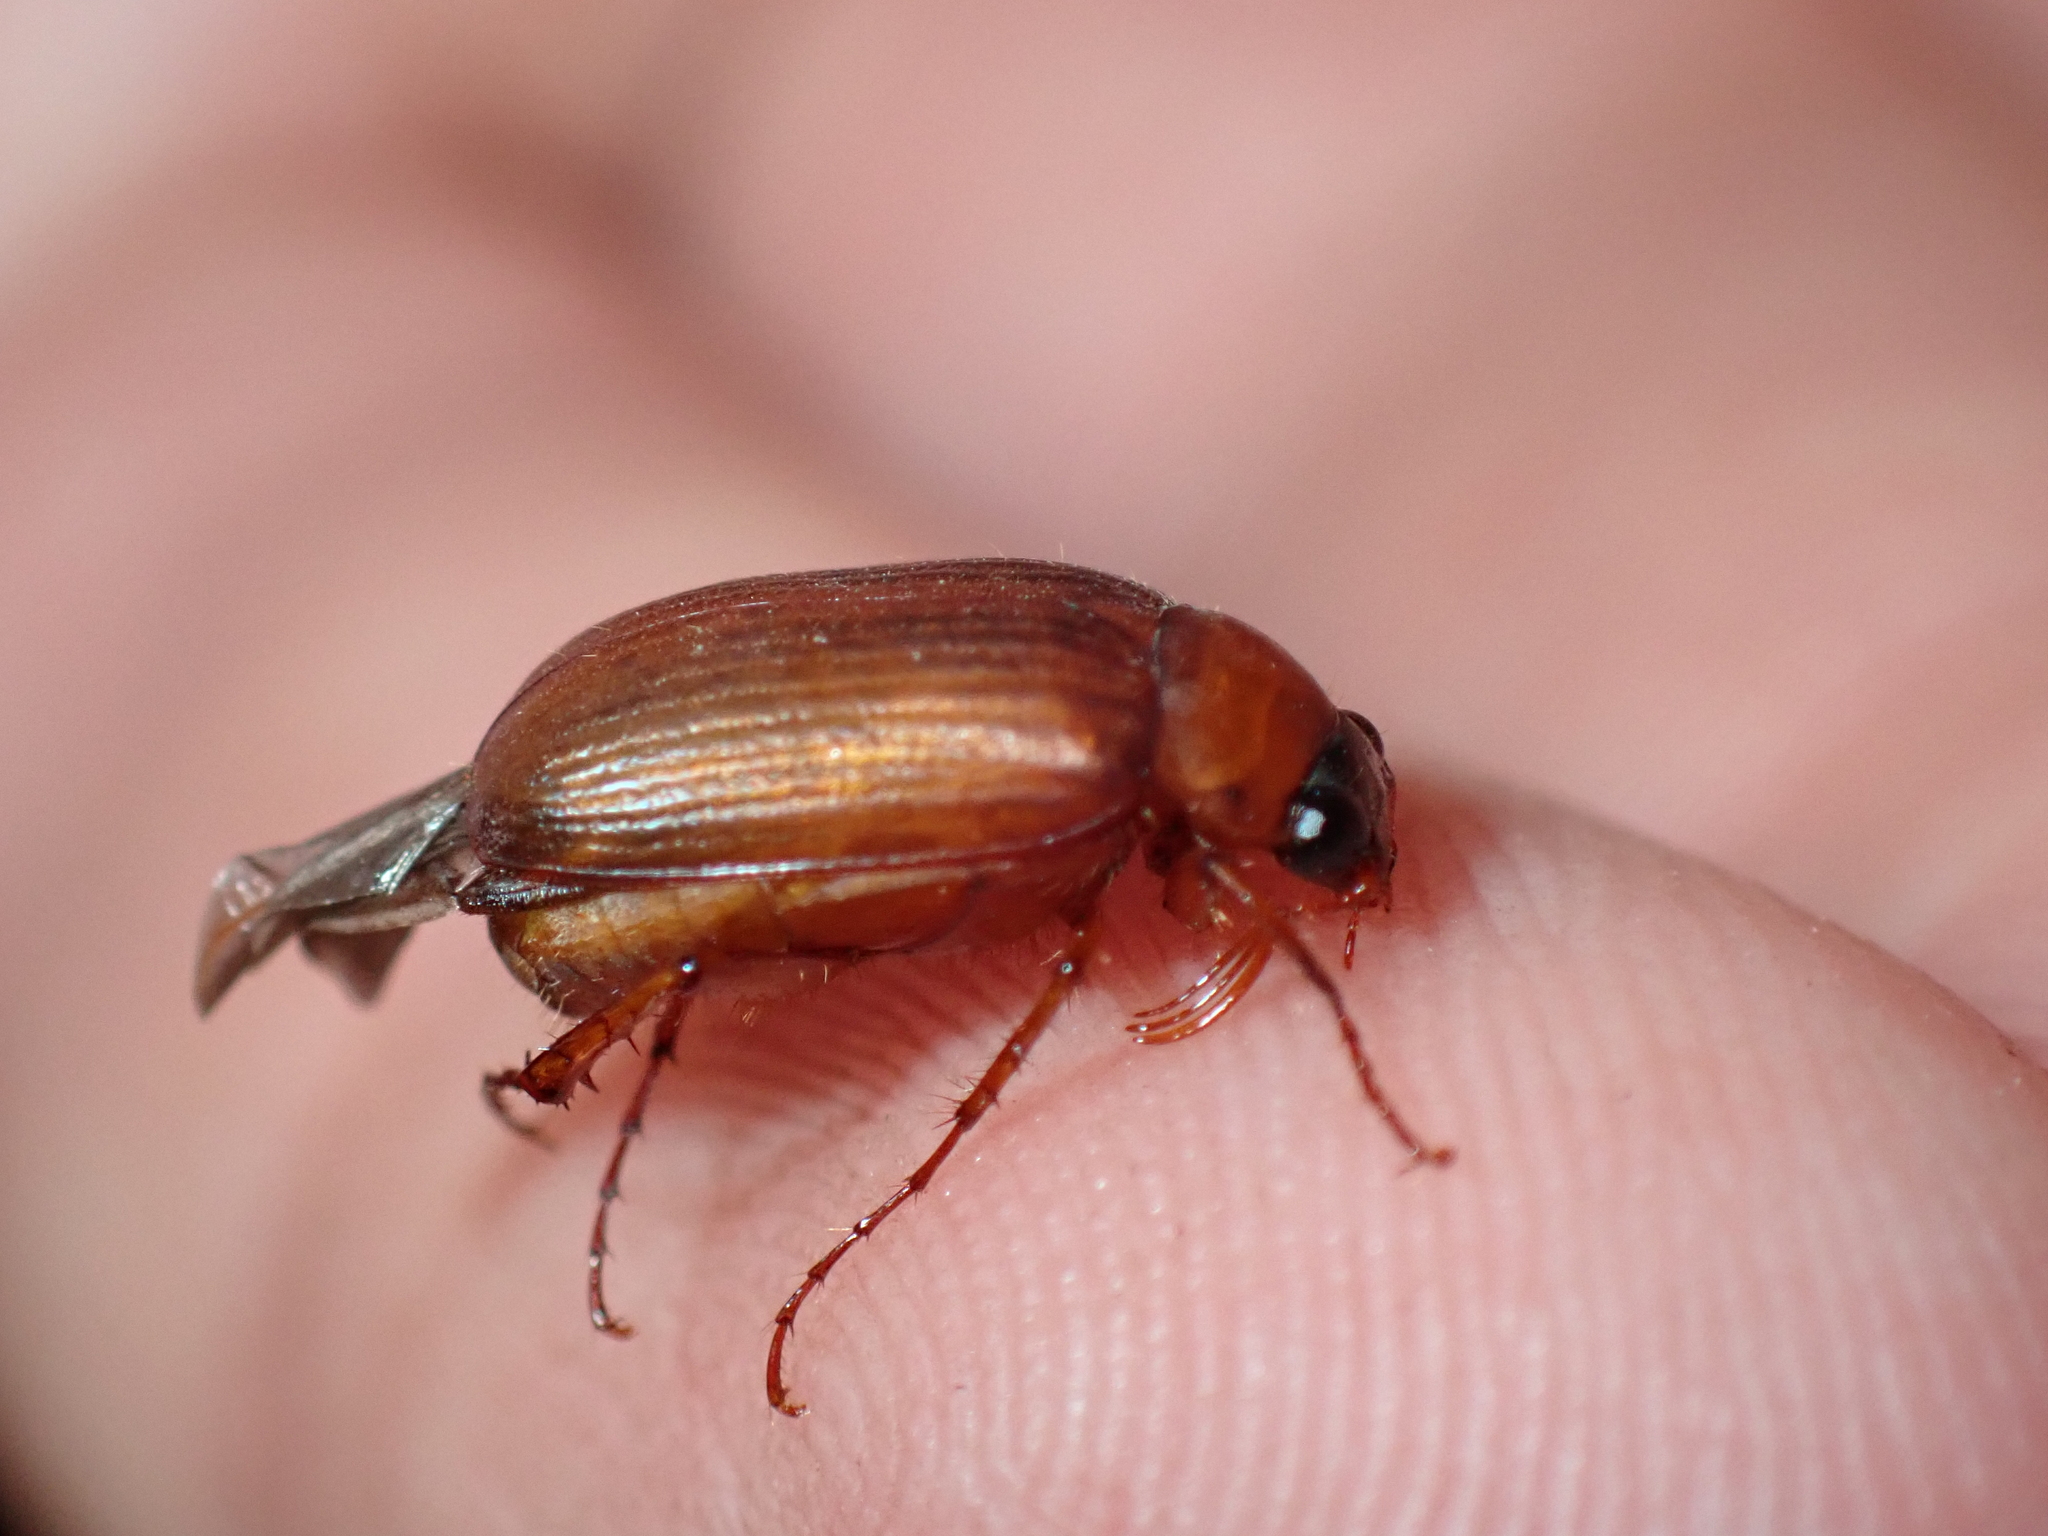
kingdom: Animalia
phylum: Arthropoda
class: Insecta
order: Coleoptera
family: Scarabaeidae
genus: Serica
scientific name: Serica brunnea
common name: Brown chafer
